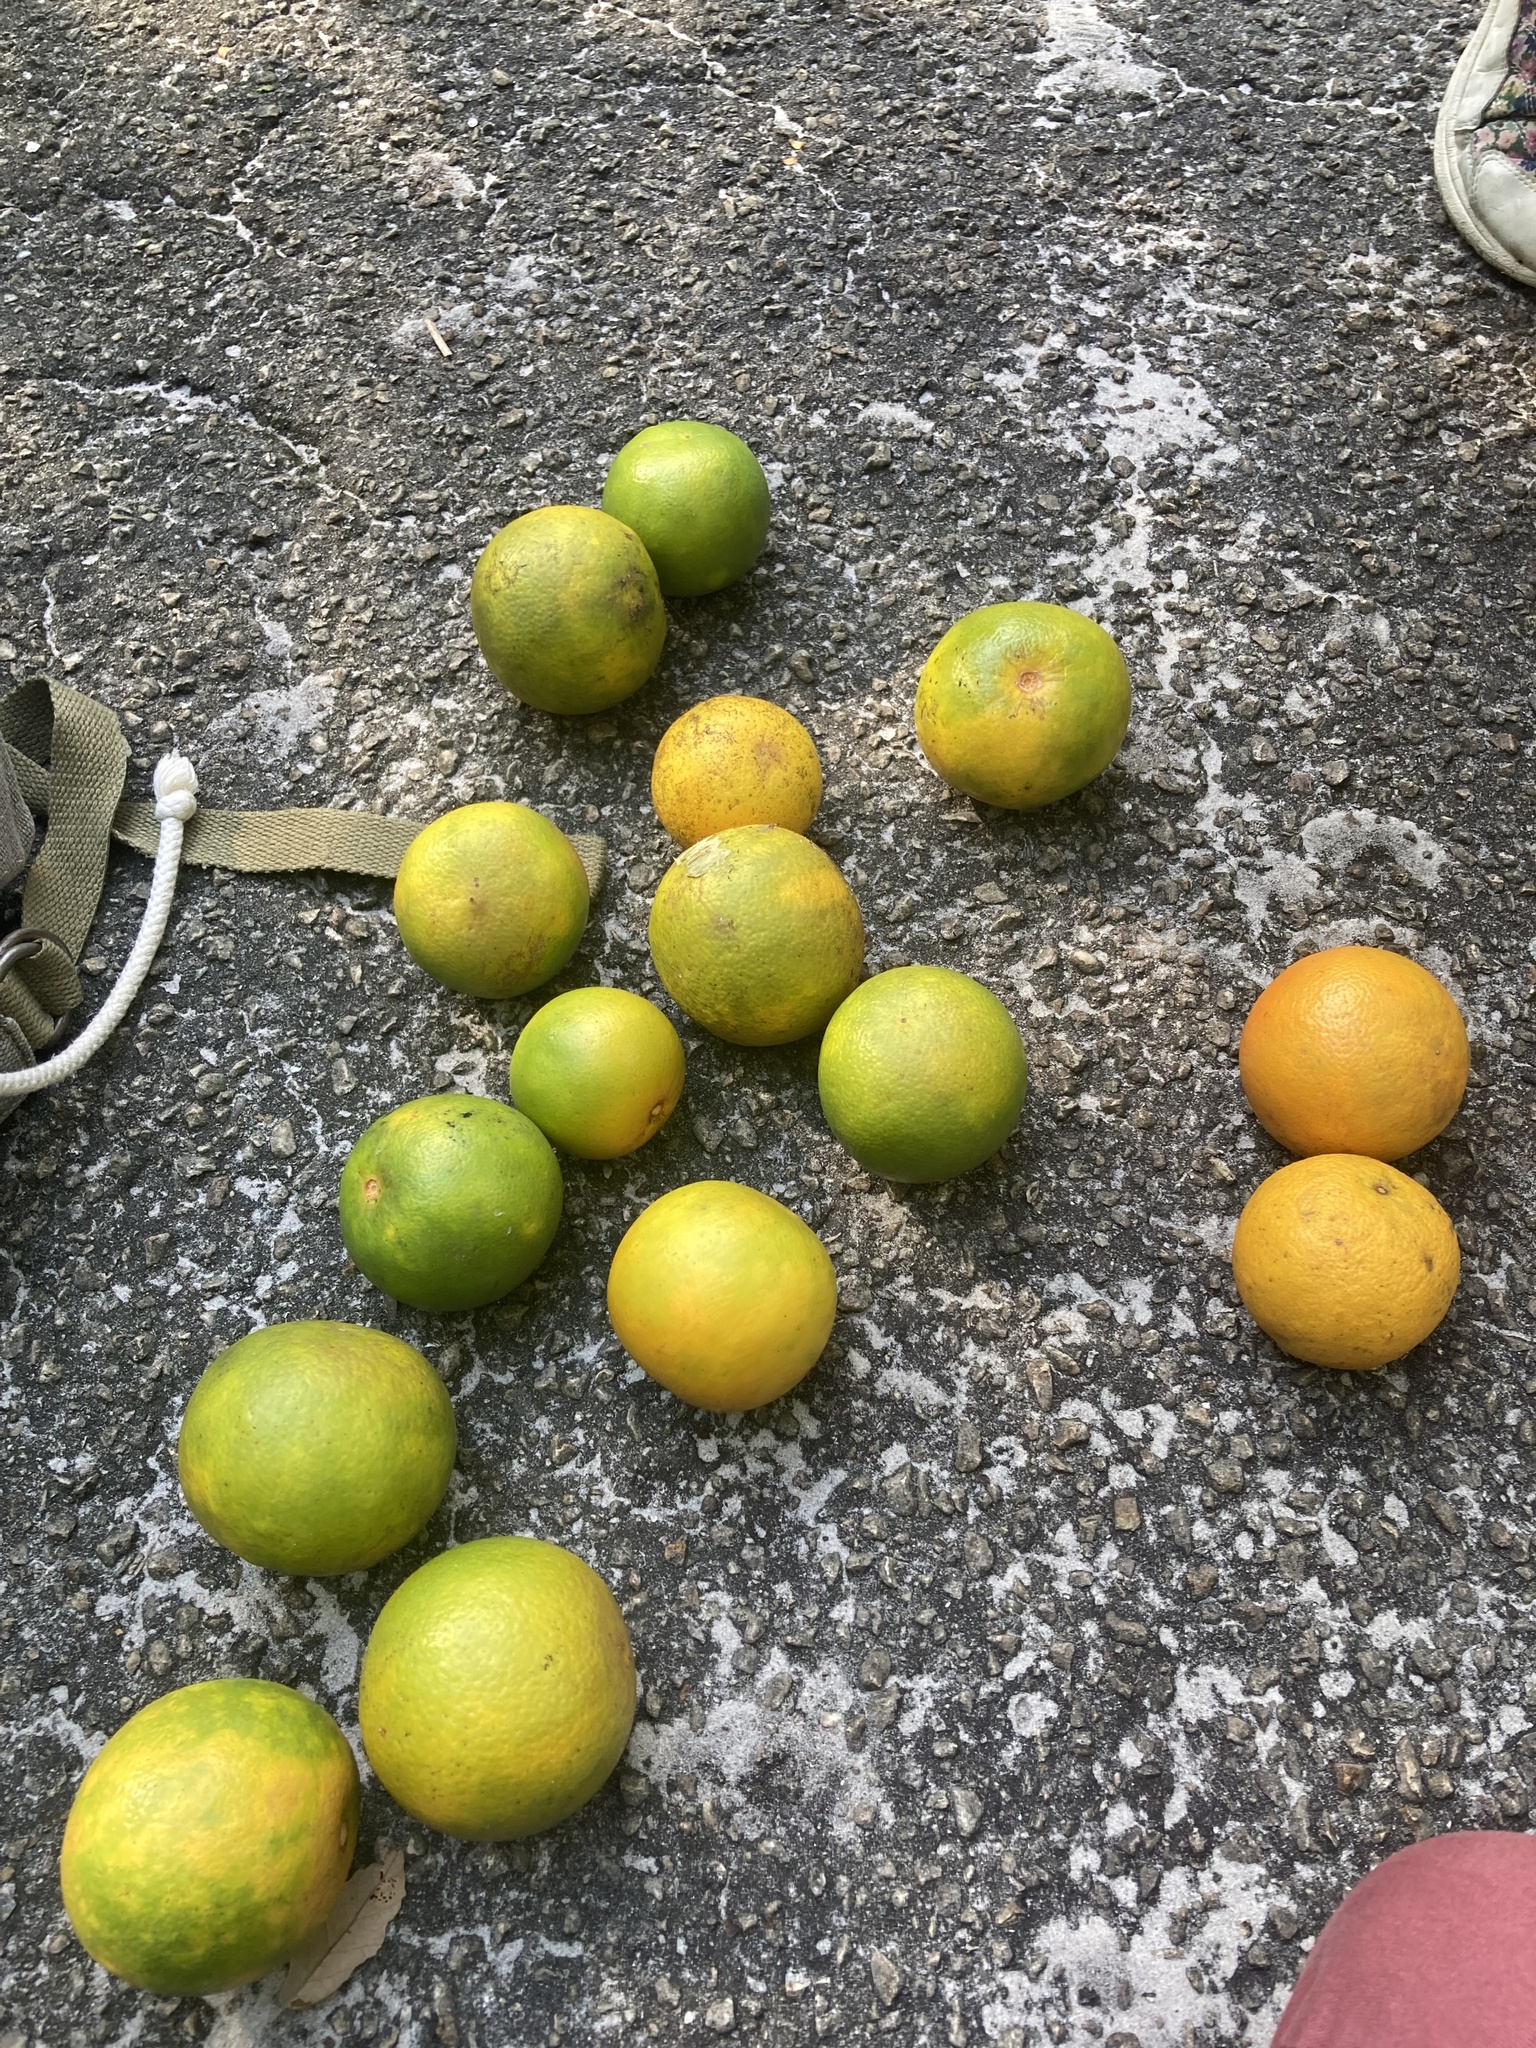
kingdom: Plantae
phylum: Tracheophyta
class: Magnoliopsida
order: Sapindales
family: Rutaceae
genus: Citrus
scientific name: Citrus aurantium
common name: Sour orange
